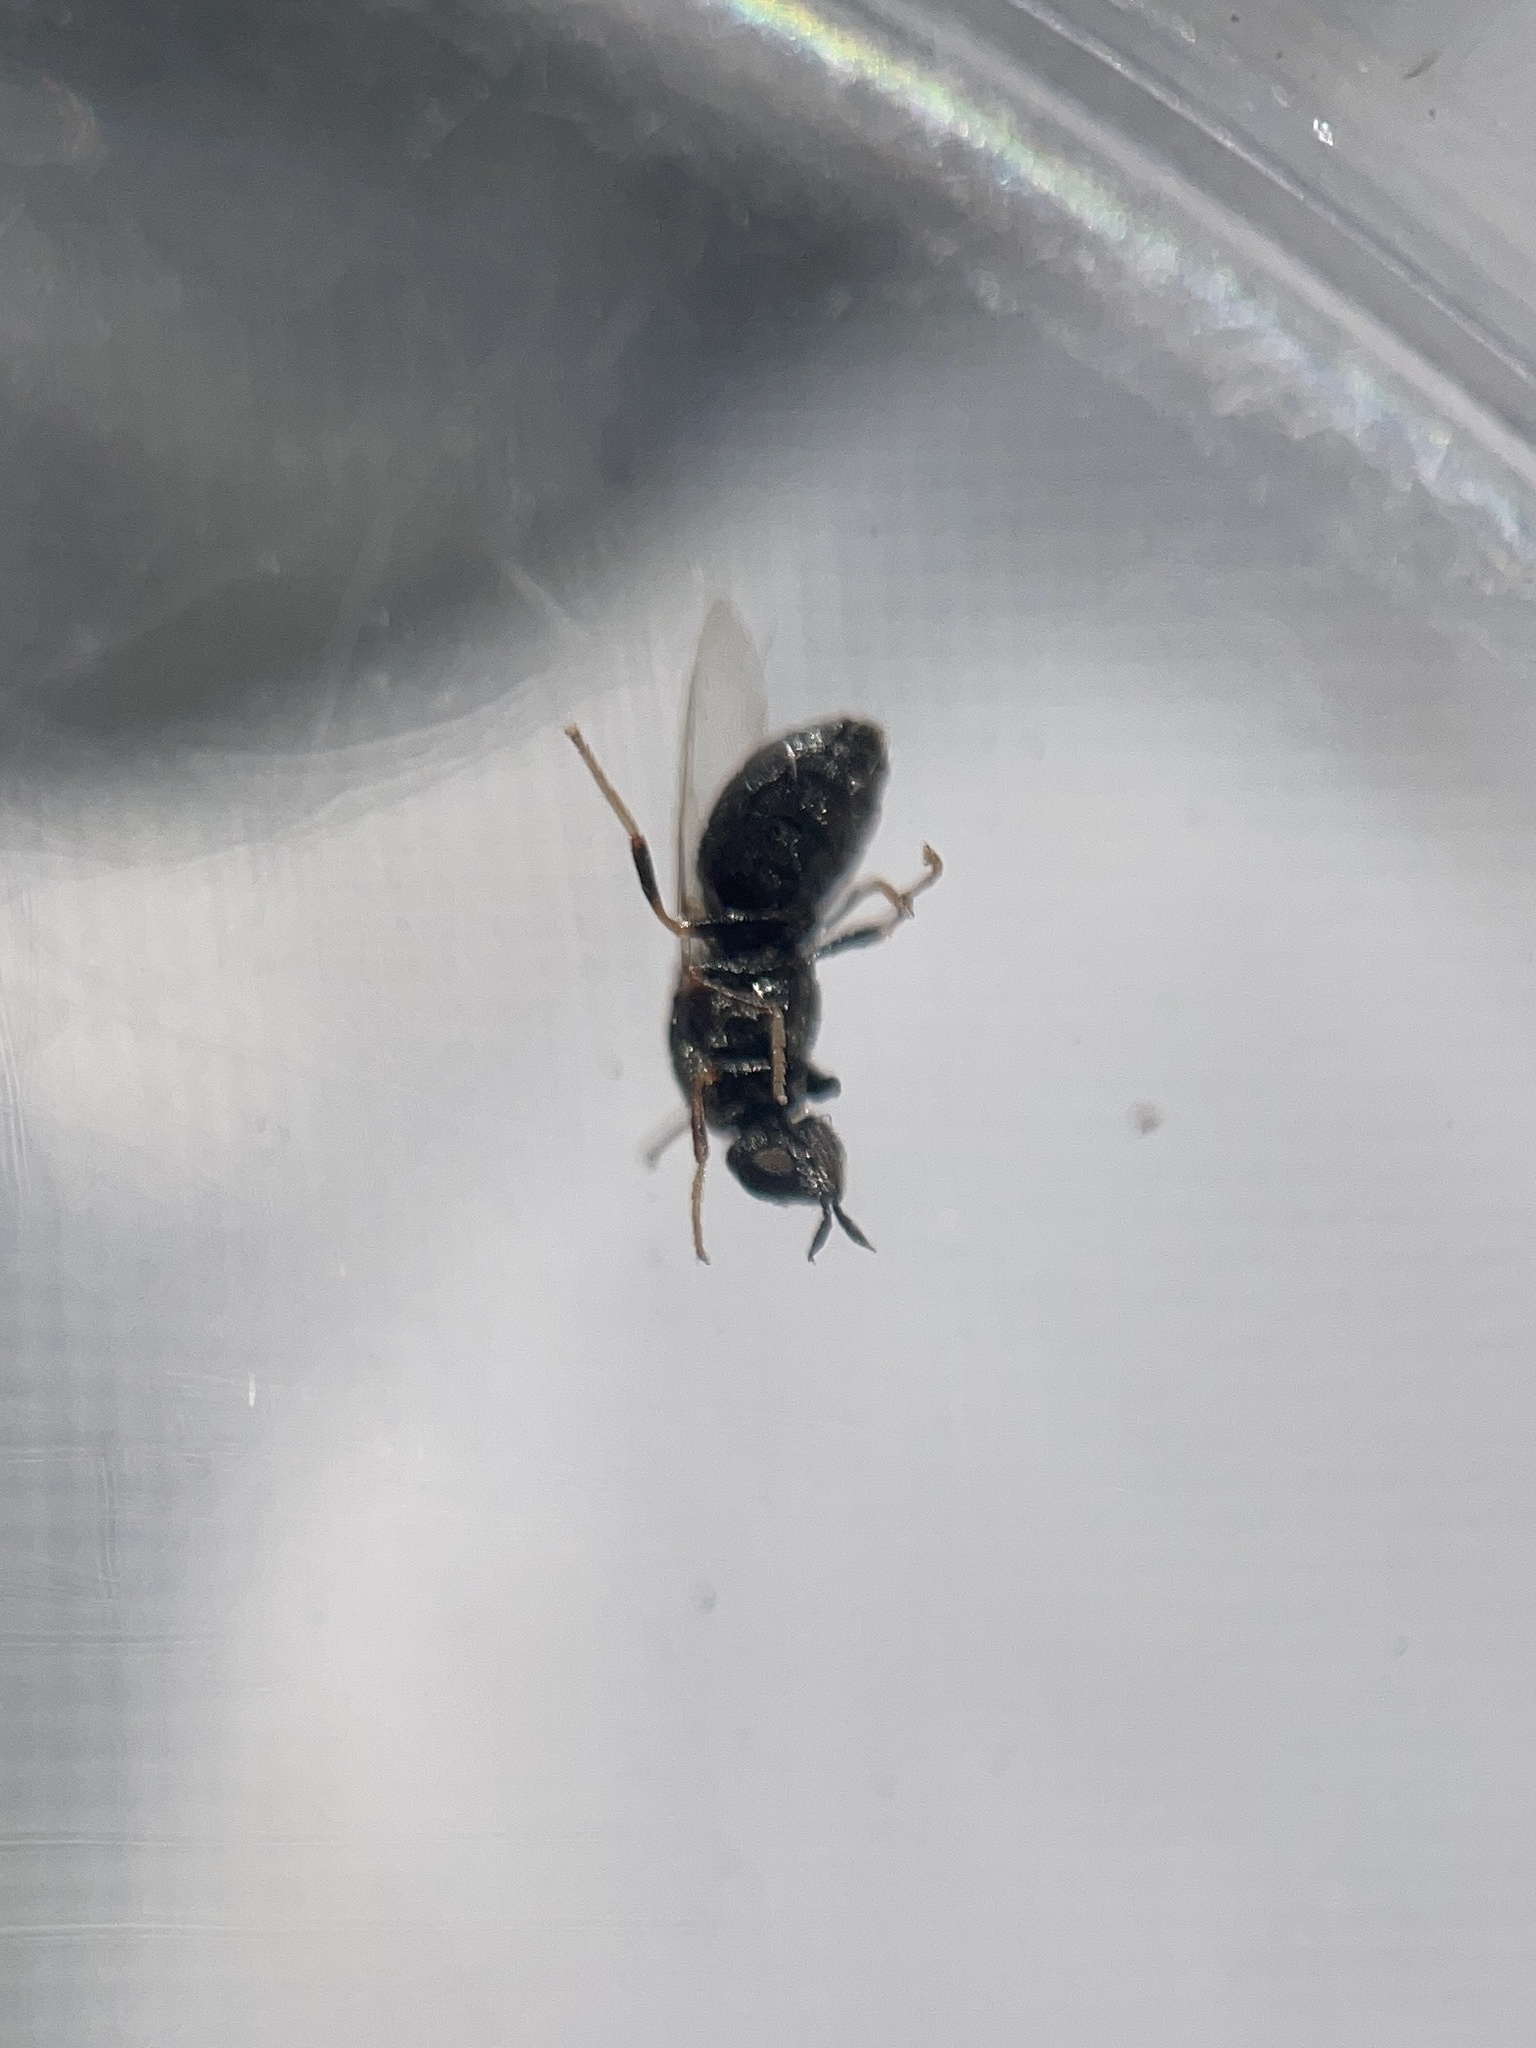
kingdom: Animalia
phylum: Arthropoda
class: Insecta
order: Diptera
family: Stratiomyidae
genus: Nemotelus
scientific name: Nemotelus bruesii
